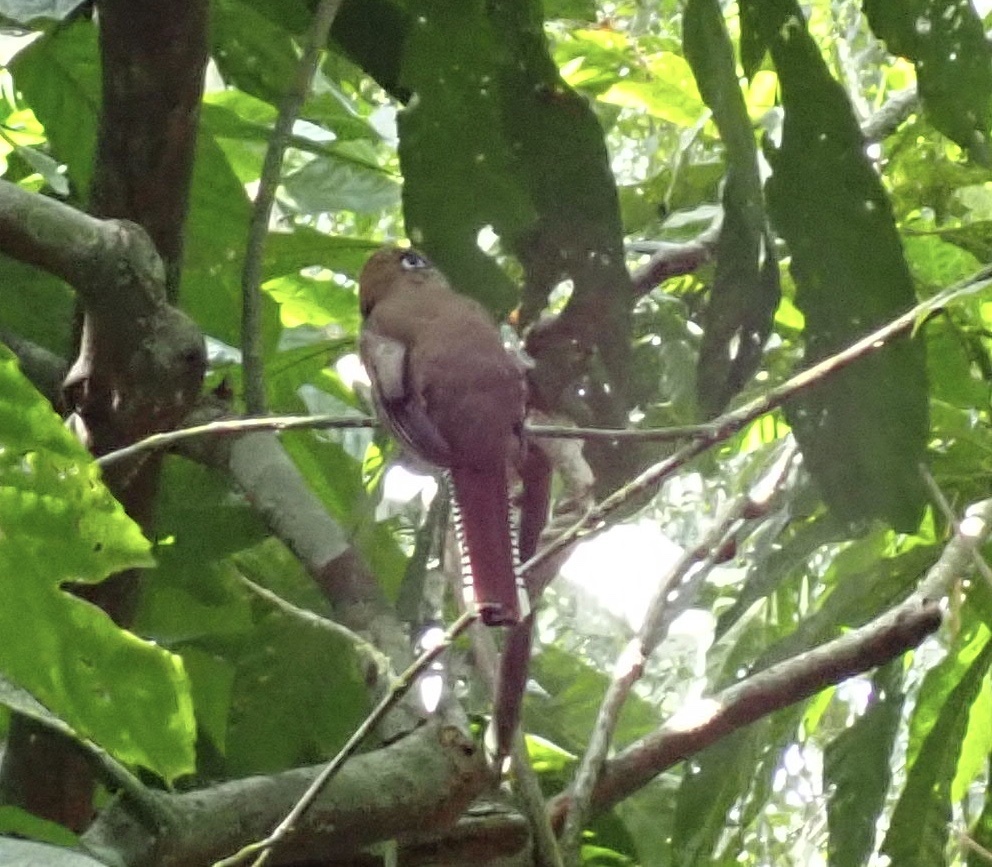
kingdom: Animalia
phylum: Chordata
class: Aves
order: Trogoniformes
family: Trogonidae
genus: Trogon
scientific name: Trogon rufus
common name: Black-throated trogon
